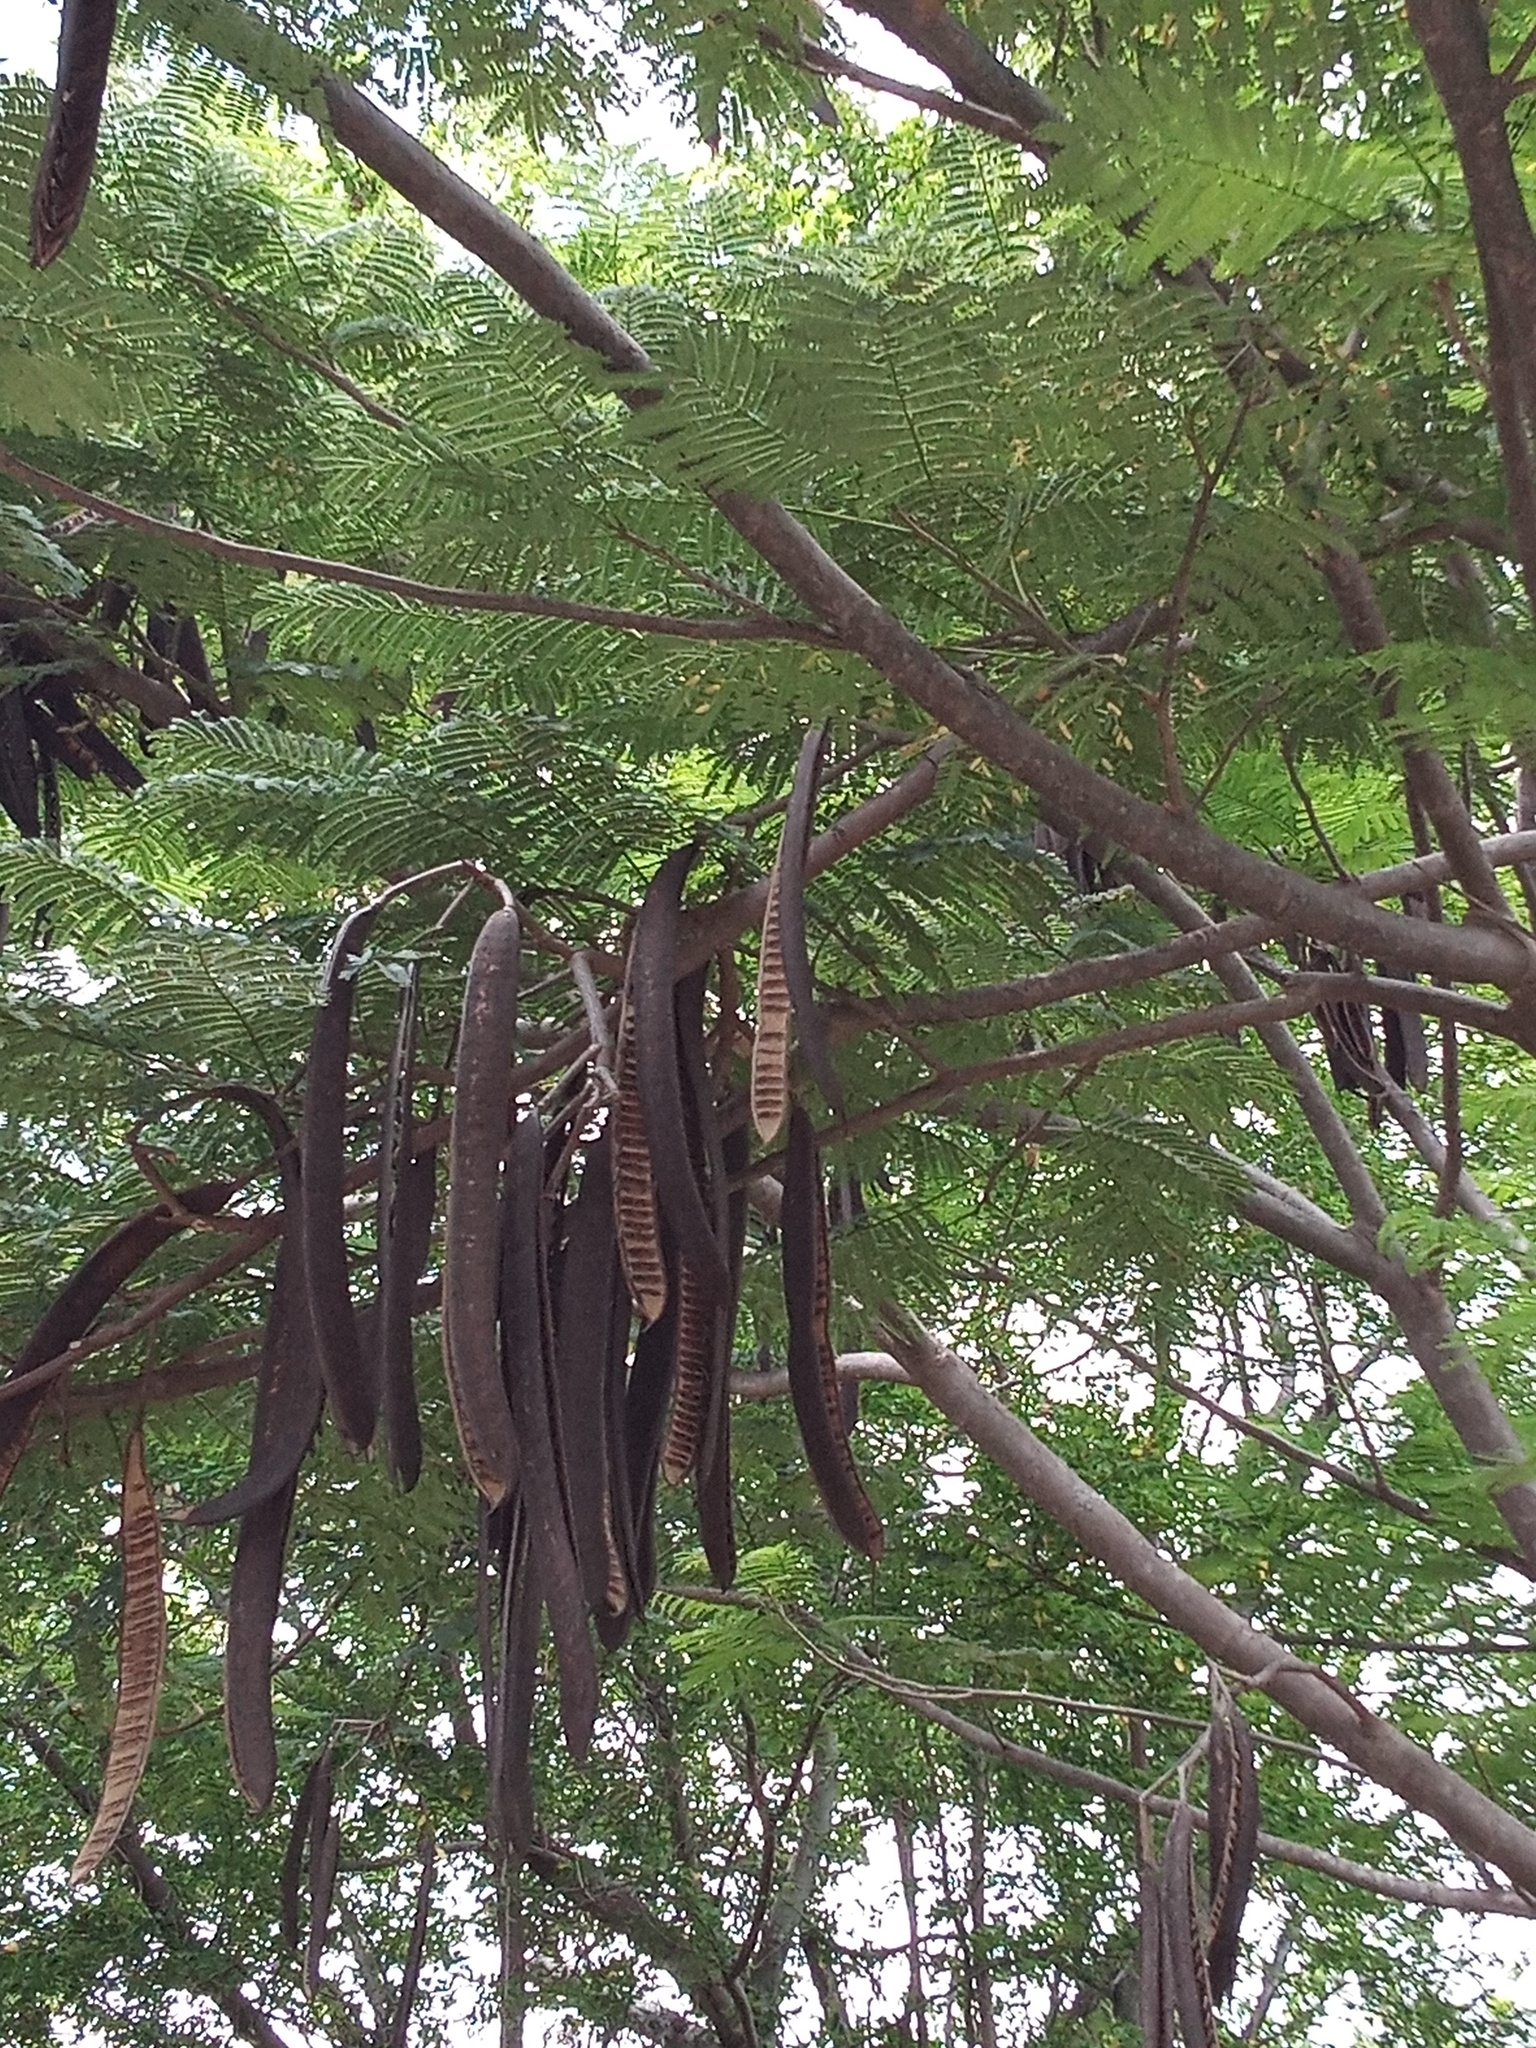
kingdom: Plantae
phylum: Tracheophyta
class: Magnoliopsida
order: Fabales
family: Fabaceae
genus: Delonix
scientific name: Delonix regia
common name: Royal poinciana
